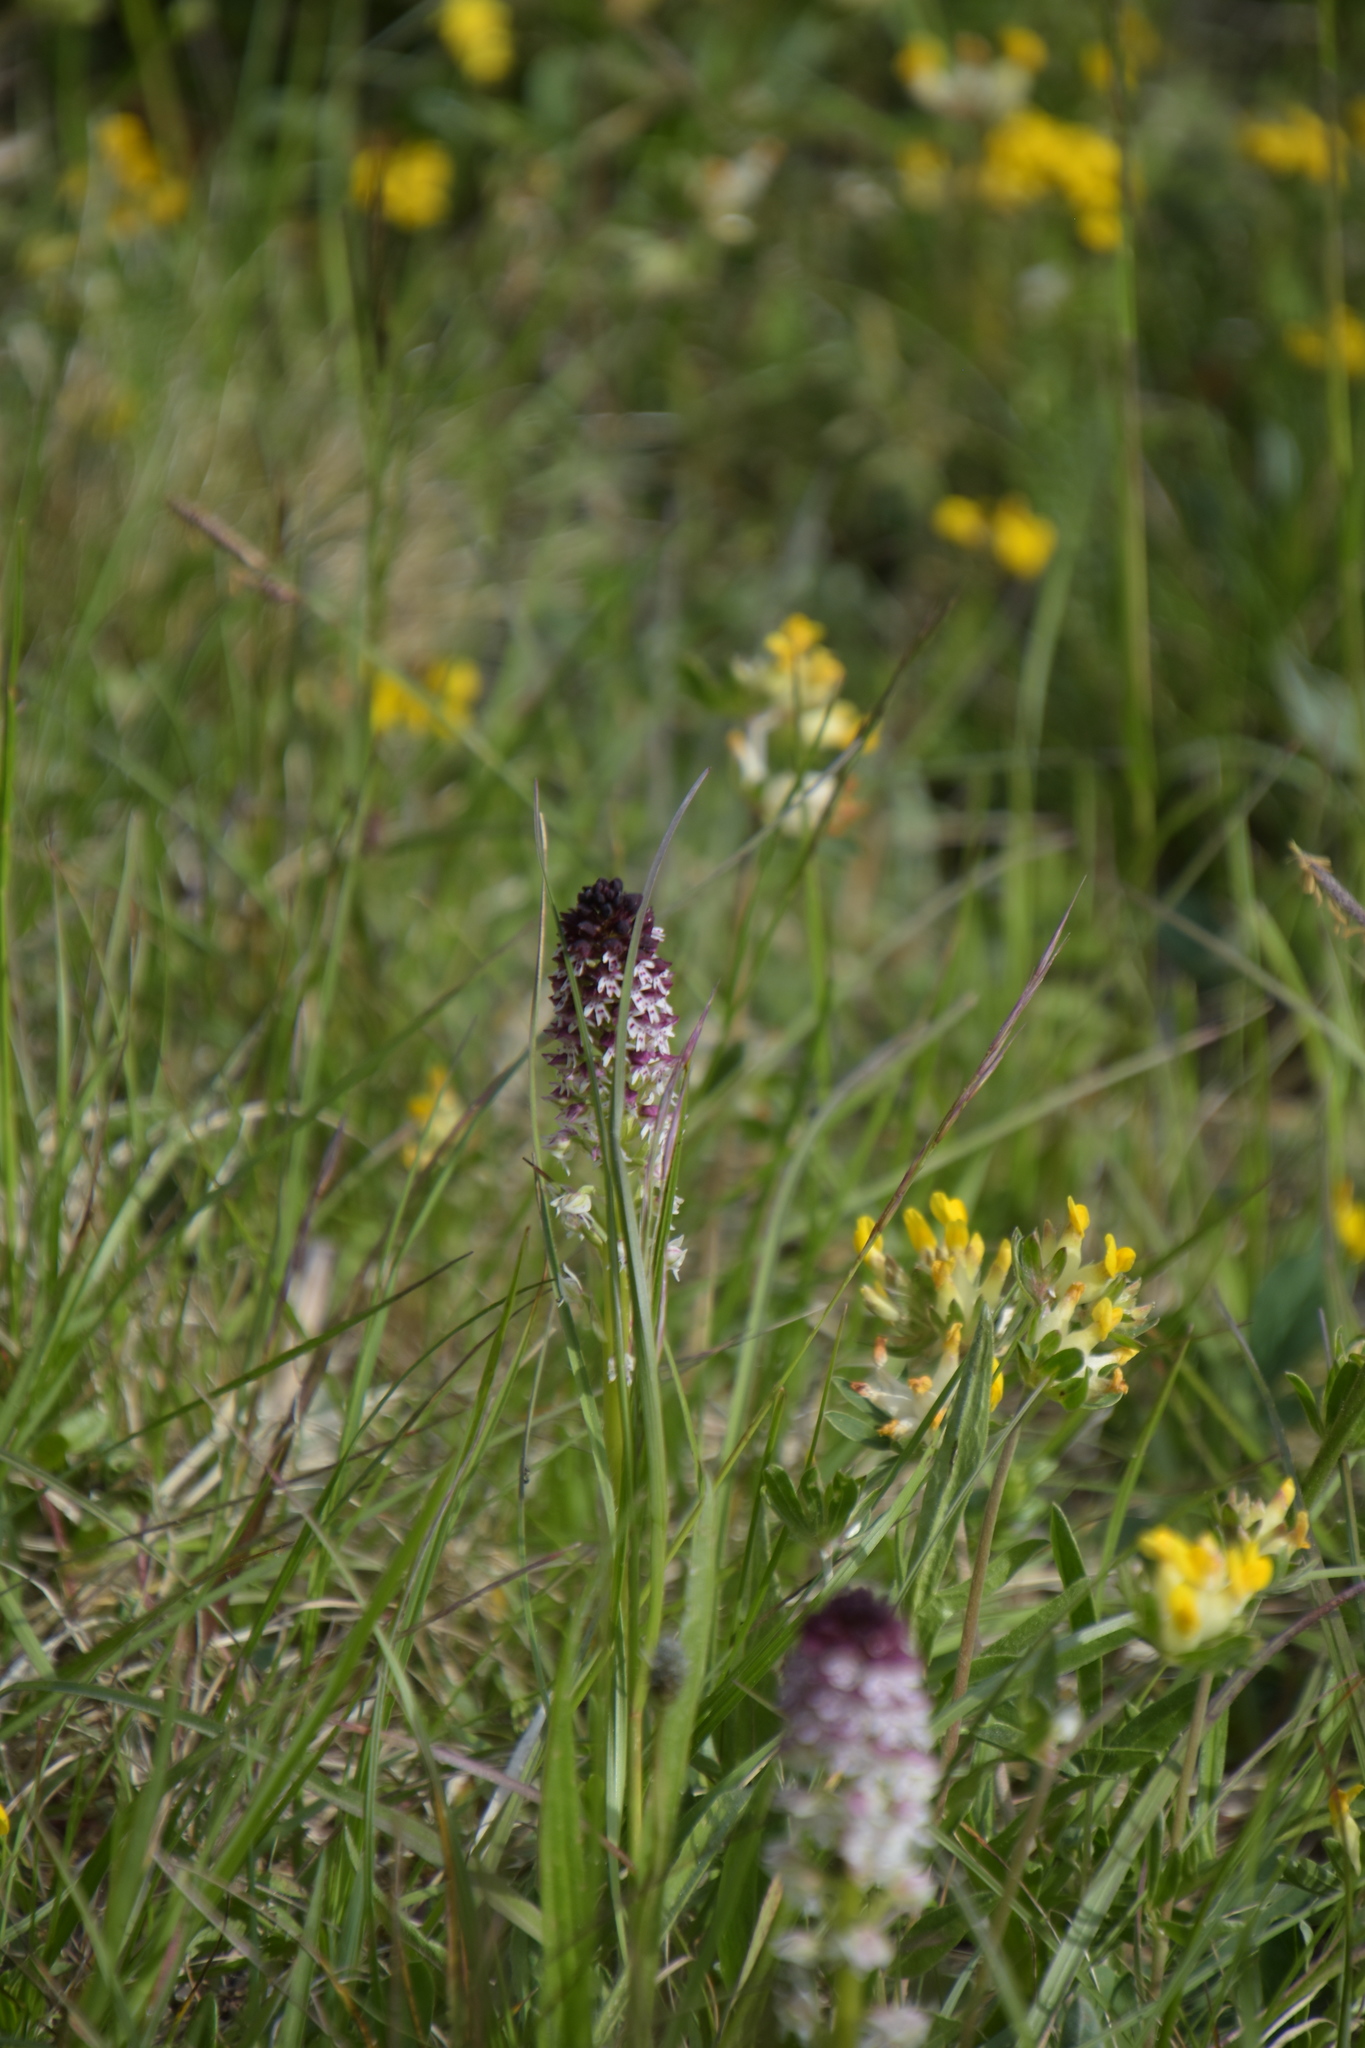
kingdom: Plantae
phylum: Tracheophyta
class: Liliopsida
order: Asparagales
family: Orchidaceae
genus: Neotinea
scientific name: Neotinea ustulata
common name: Burnt orchid
